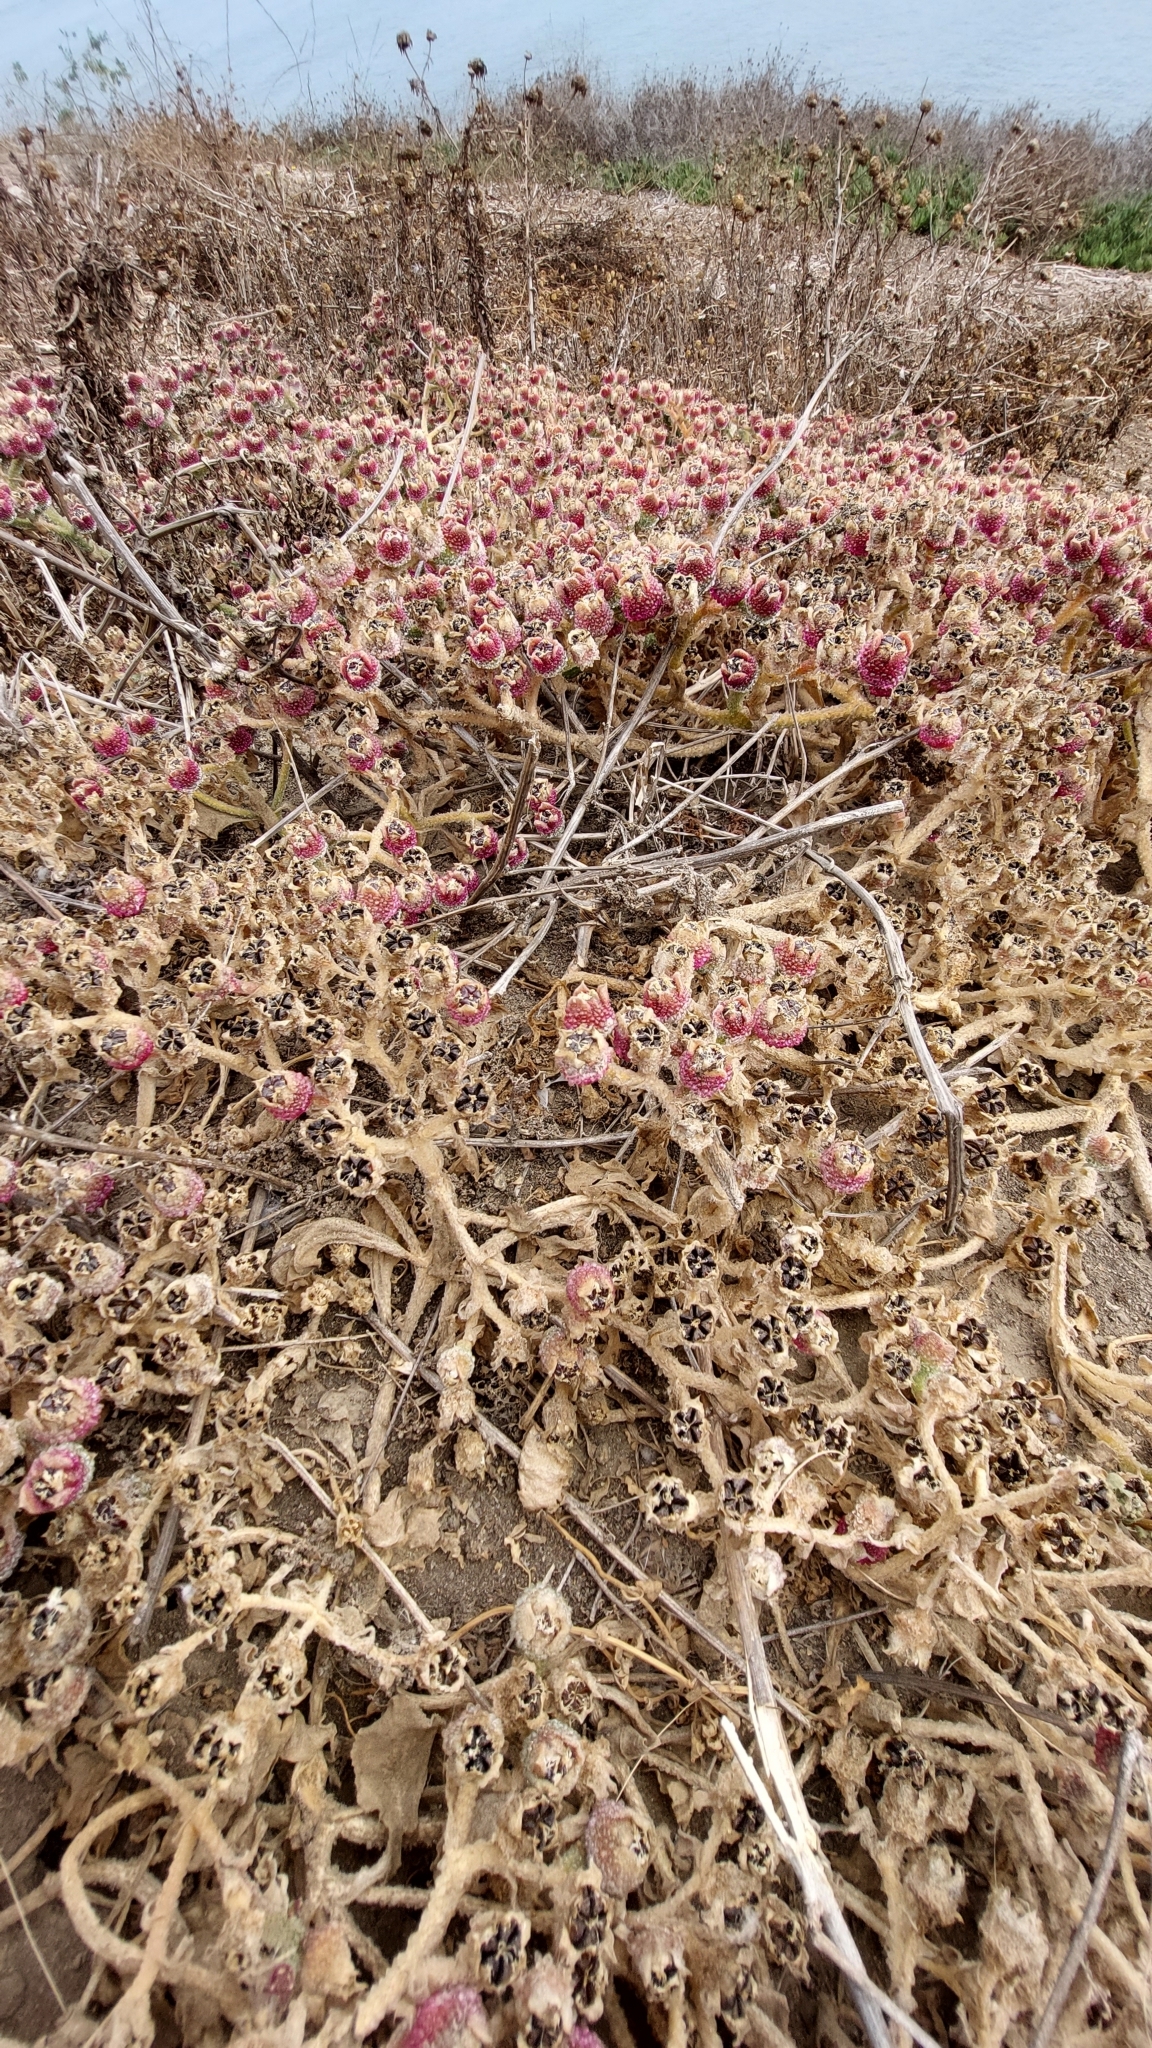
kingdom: Plantae
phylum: Tracheophyta
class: Magnoliopsida
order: Caryophyllales
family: Aizoaceae
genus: Mesembryanthemum
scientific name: Mesembryanthemum crystallinum
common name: Common iceplant
